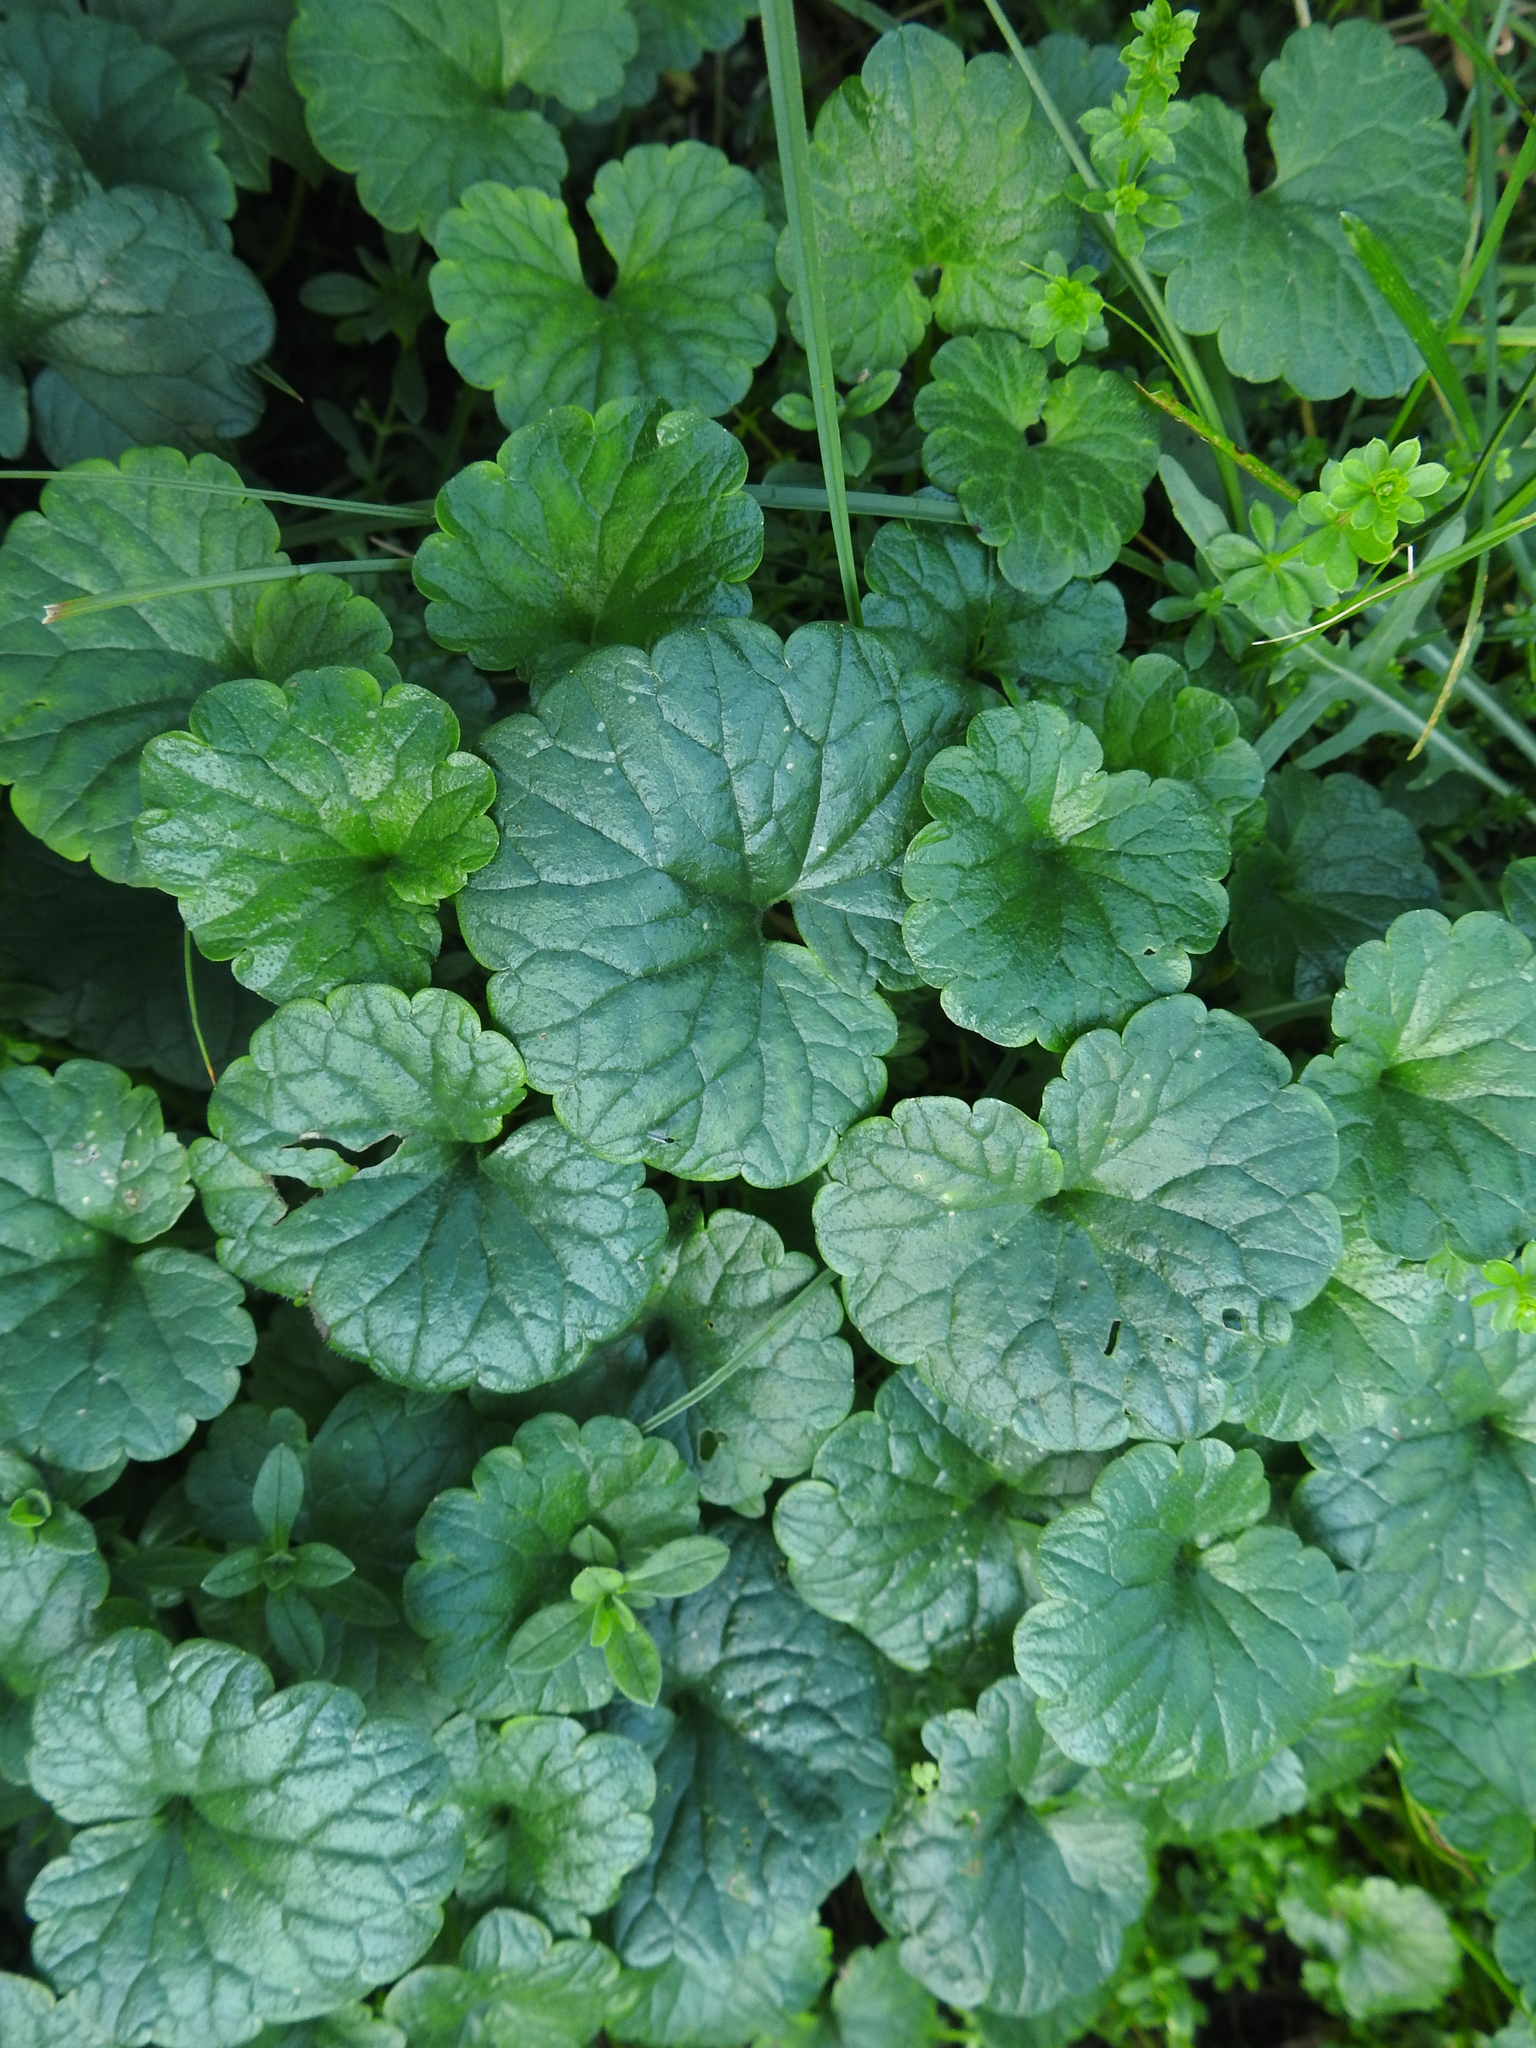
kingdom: Plantae
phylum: Tracheophyta
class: Magnoliopsida
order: Lamiales
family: Lamiaceae
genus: Glechoma
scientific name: Glechoma hederacea
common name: Ground ivy
